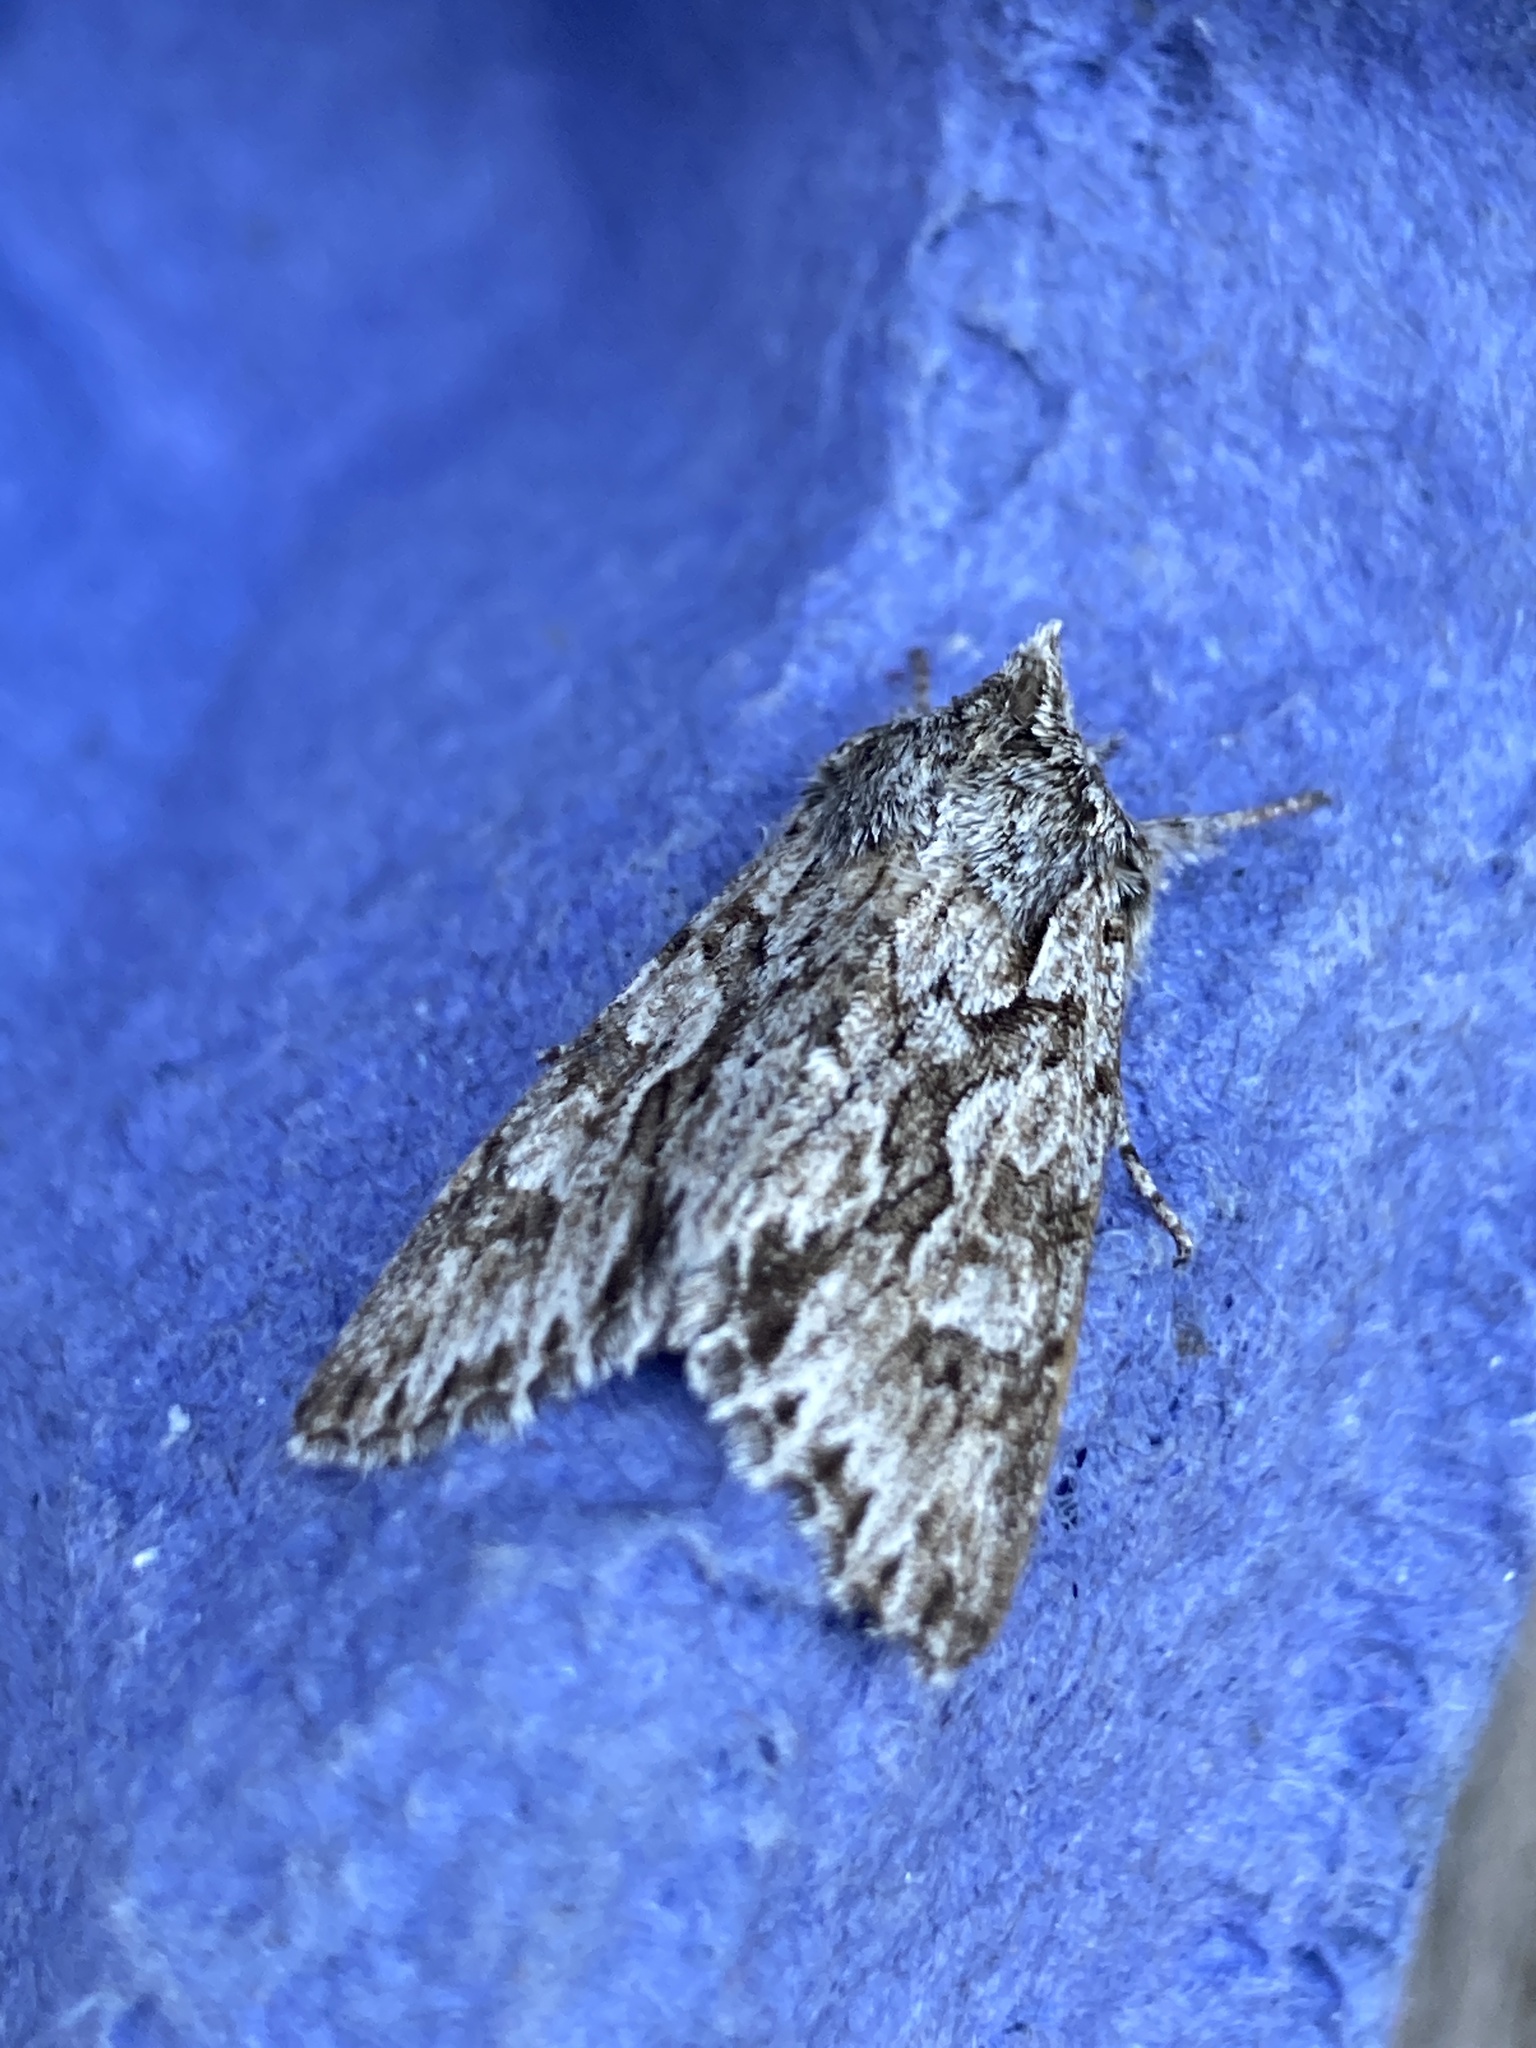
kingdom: Animalia
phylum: Arthropoda
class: Insecta
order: Lepidoptera
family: Noctuidae
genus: Xylocampa
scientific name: Xylocampa areola
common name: Early grey
